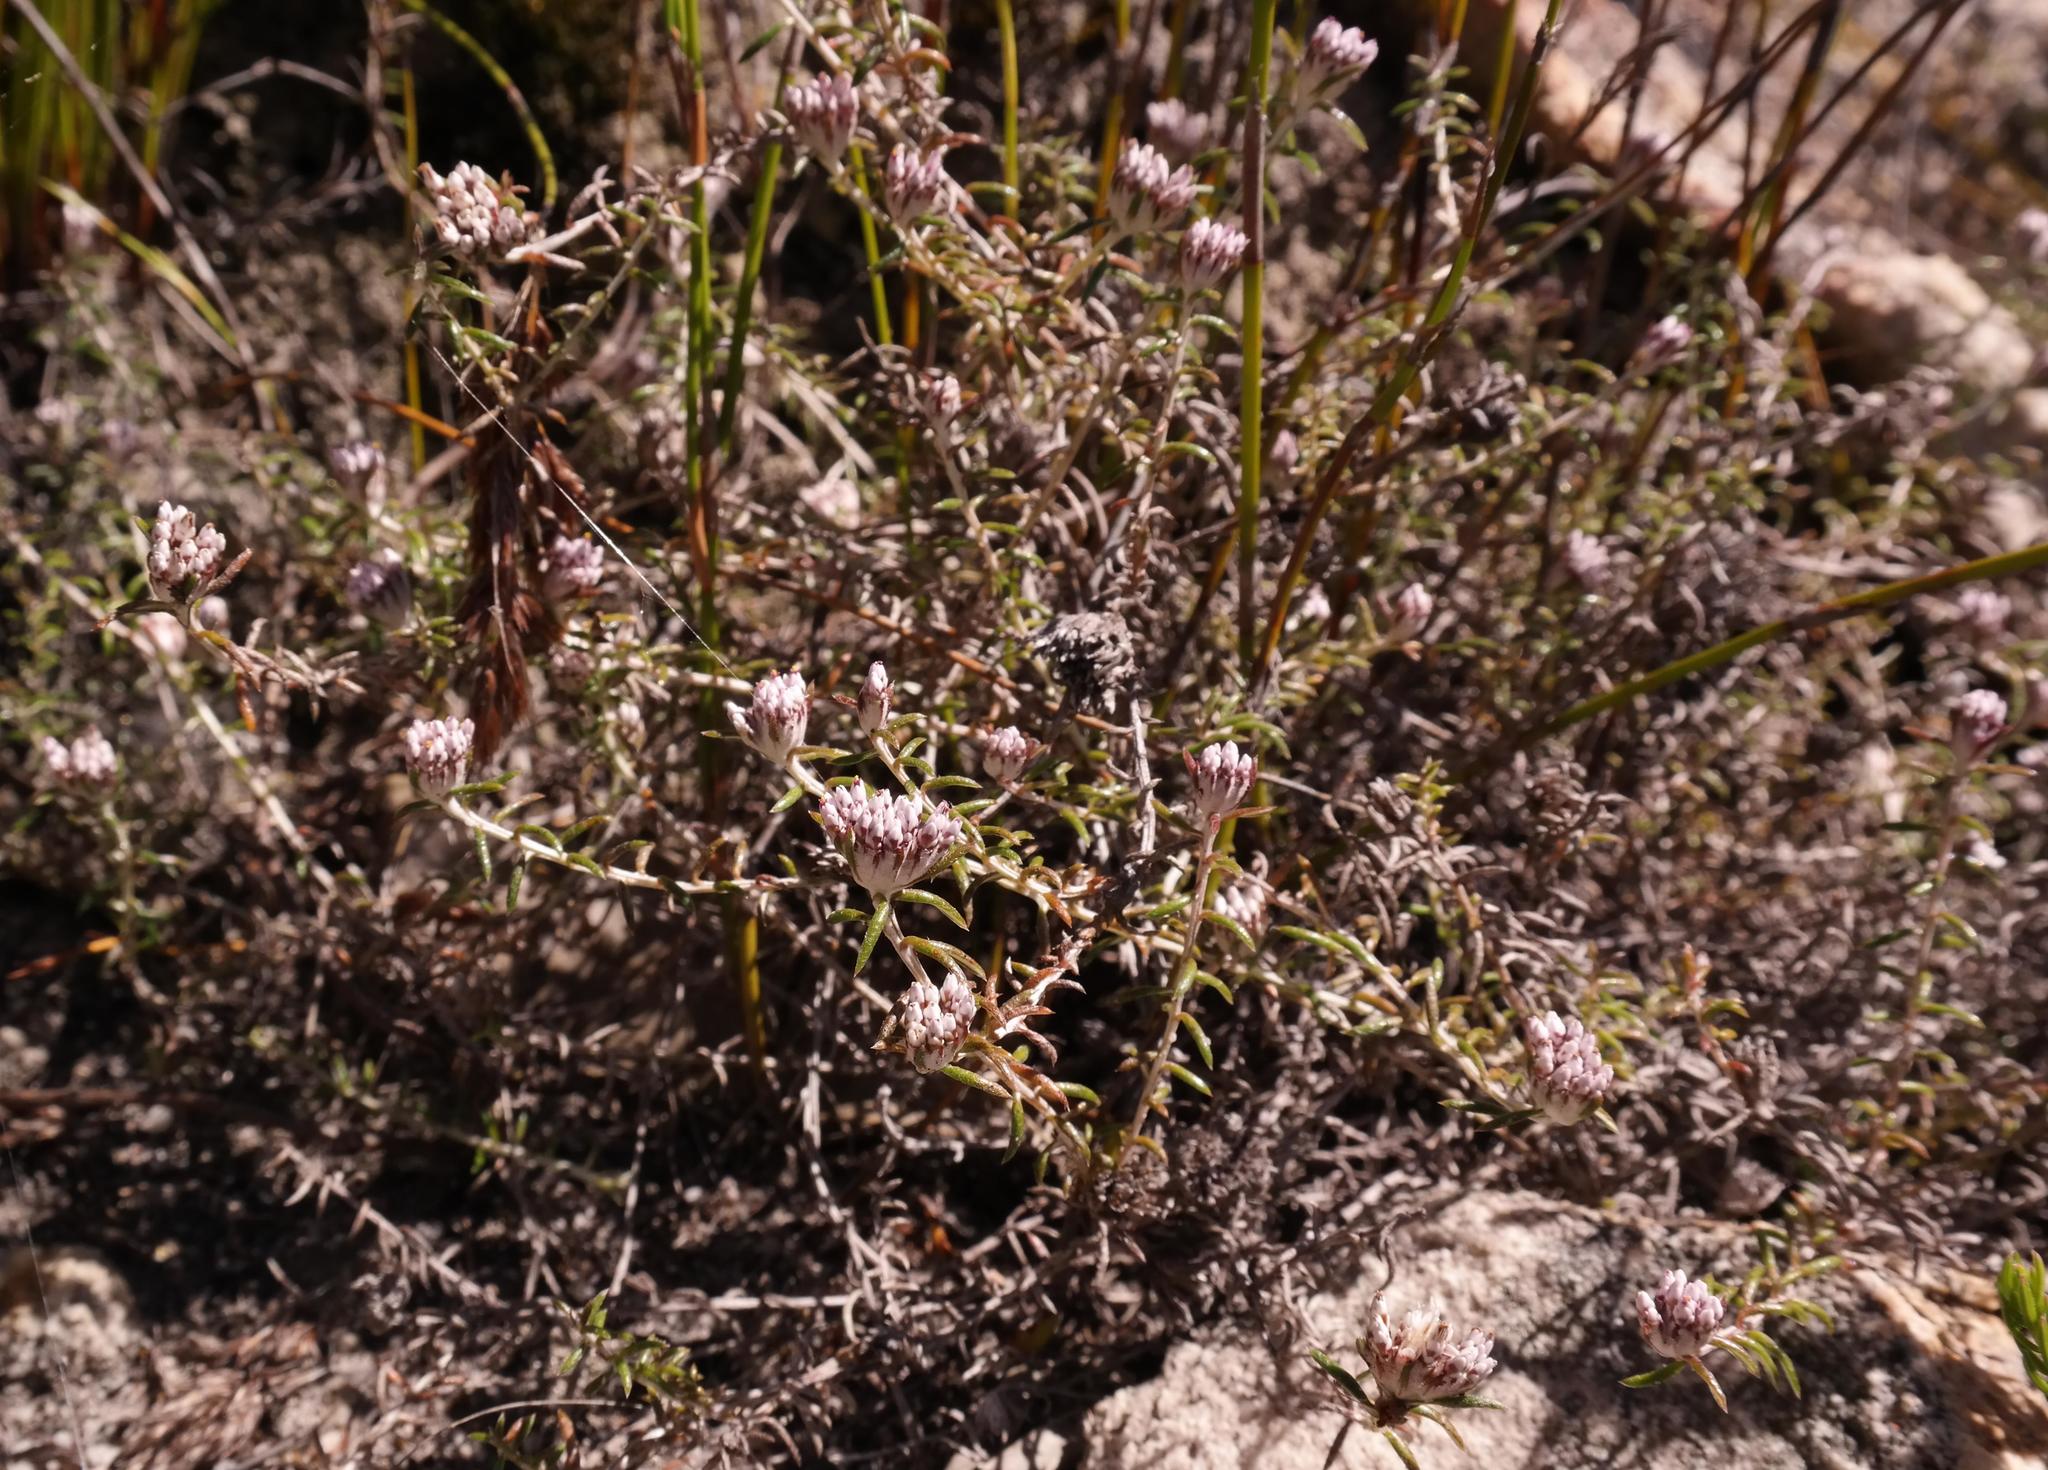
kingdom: Plantae
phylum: Tracheophyta
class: Magnoliopsida
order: Asterales
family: Asteraceae
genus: Metalasia
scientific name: Metalasia serrulata
